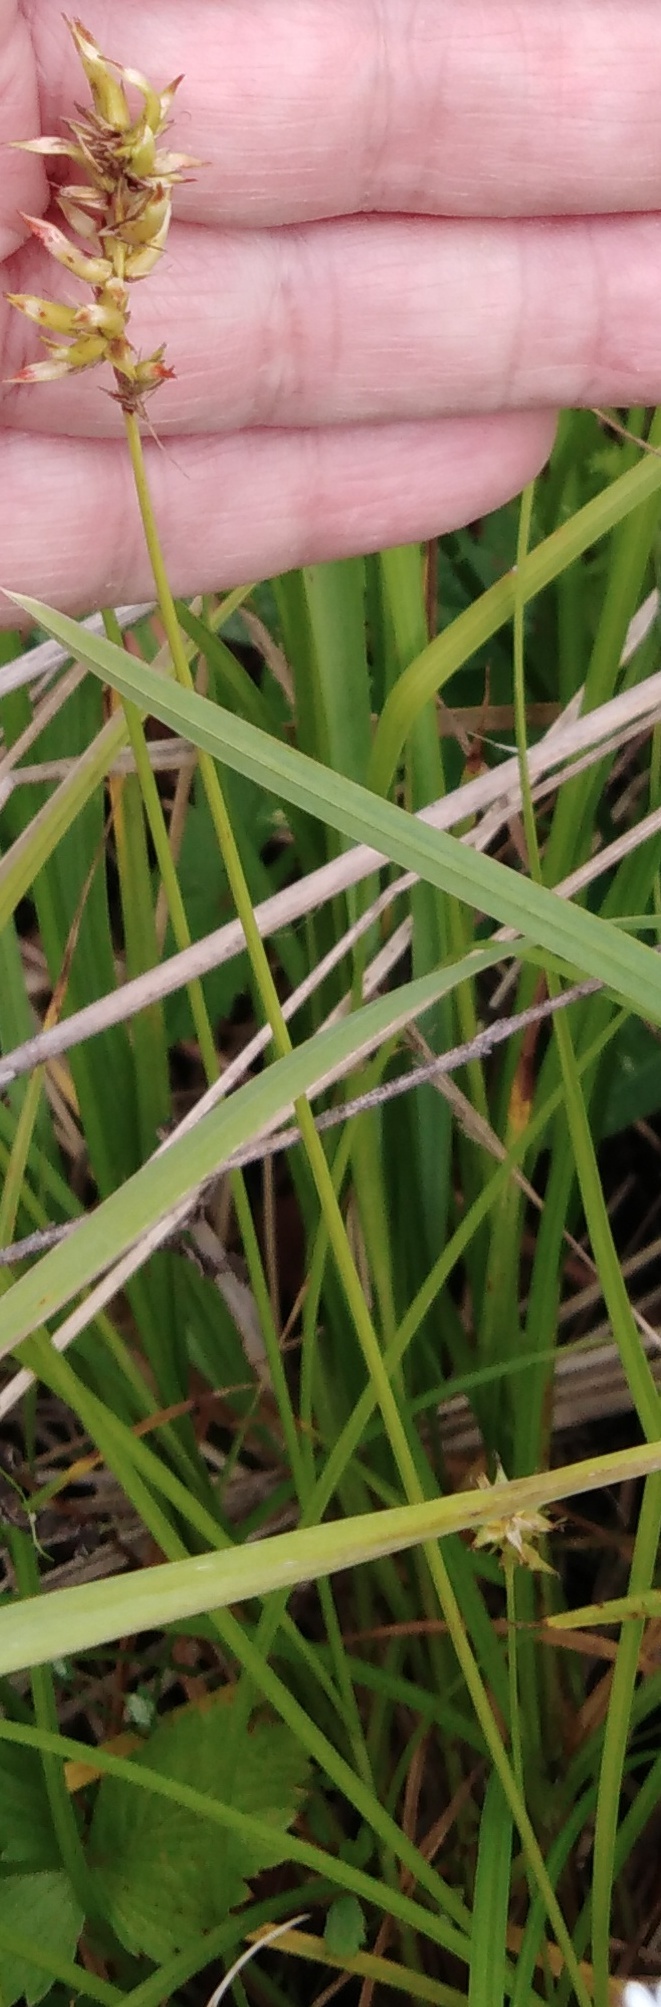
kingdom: Plantae
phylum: Tracheophyta
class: Liliopsida
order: Poales
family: Cyperaceae
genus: Carex
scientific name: Carex spicata
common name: Spiked sedge
